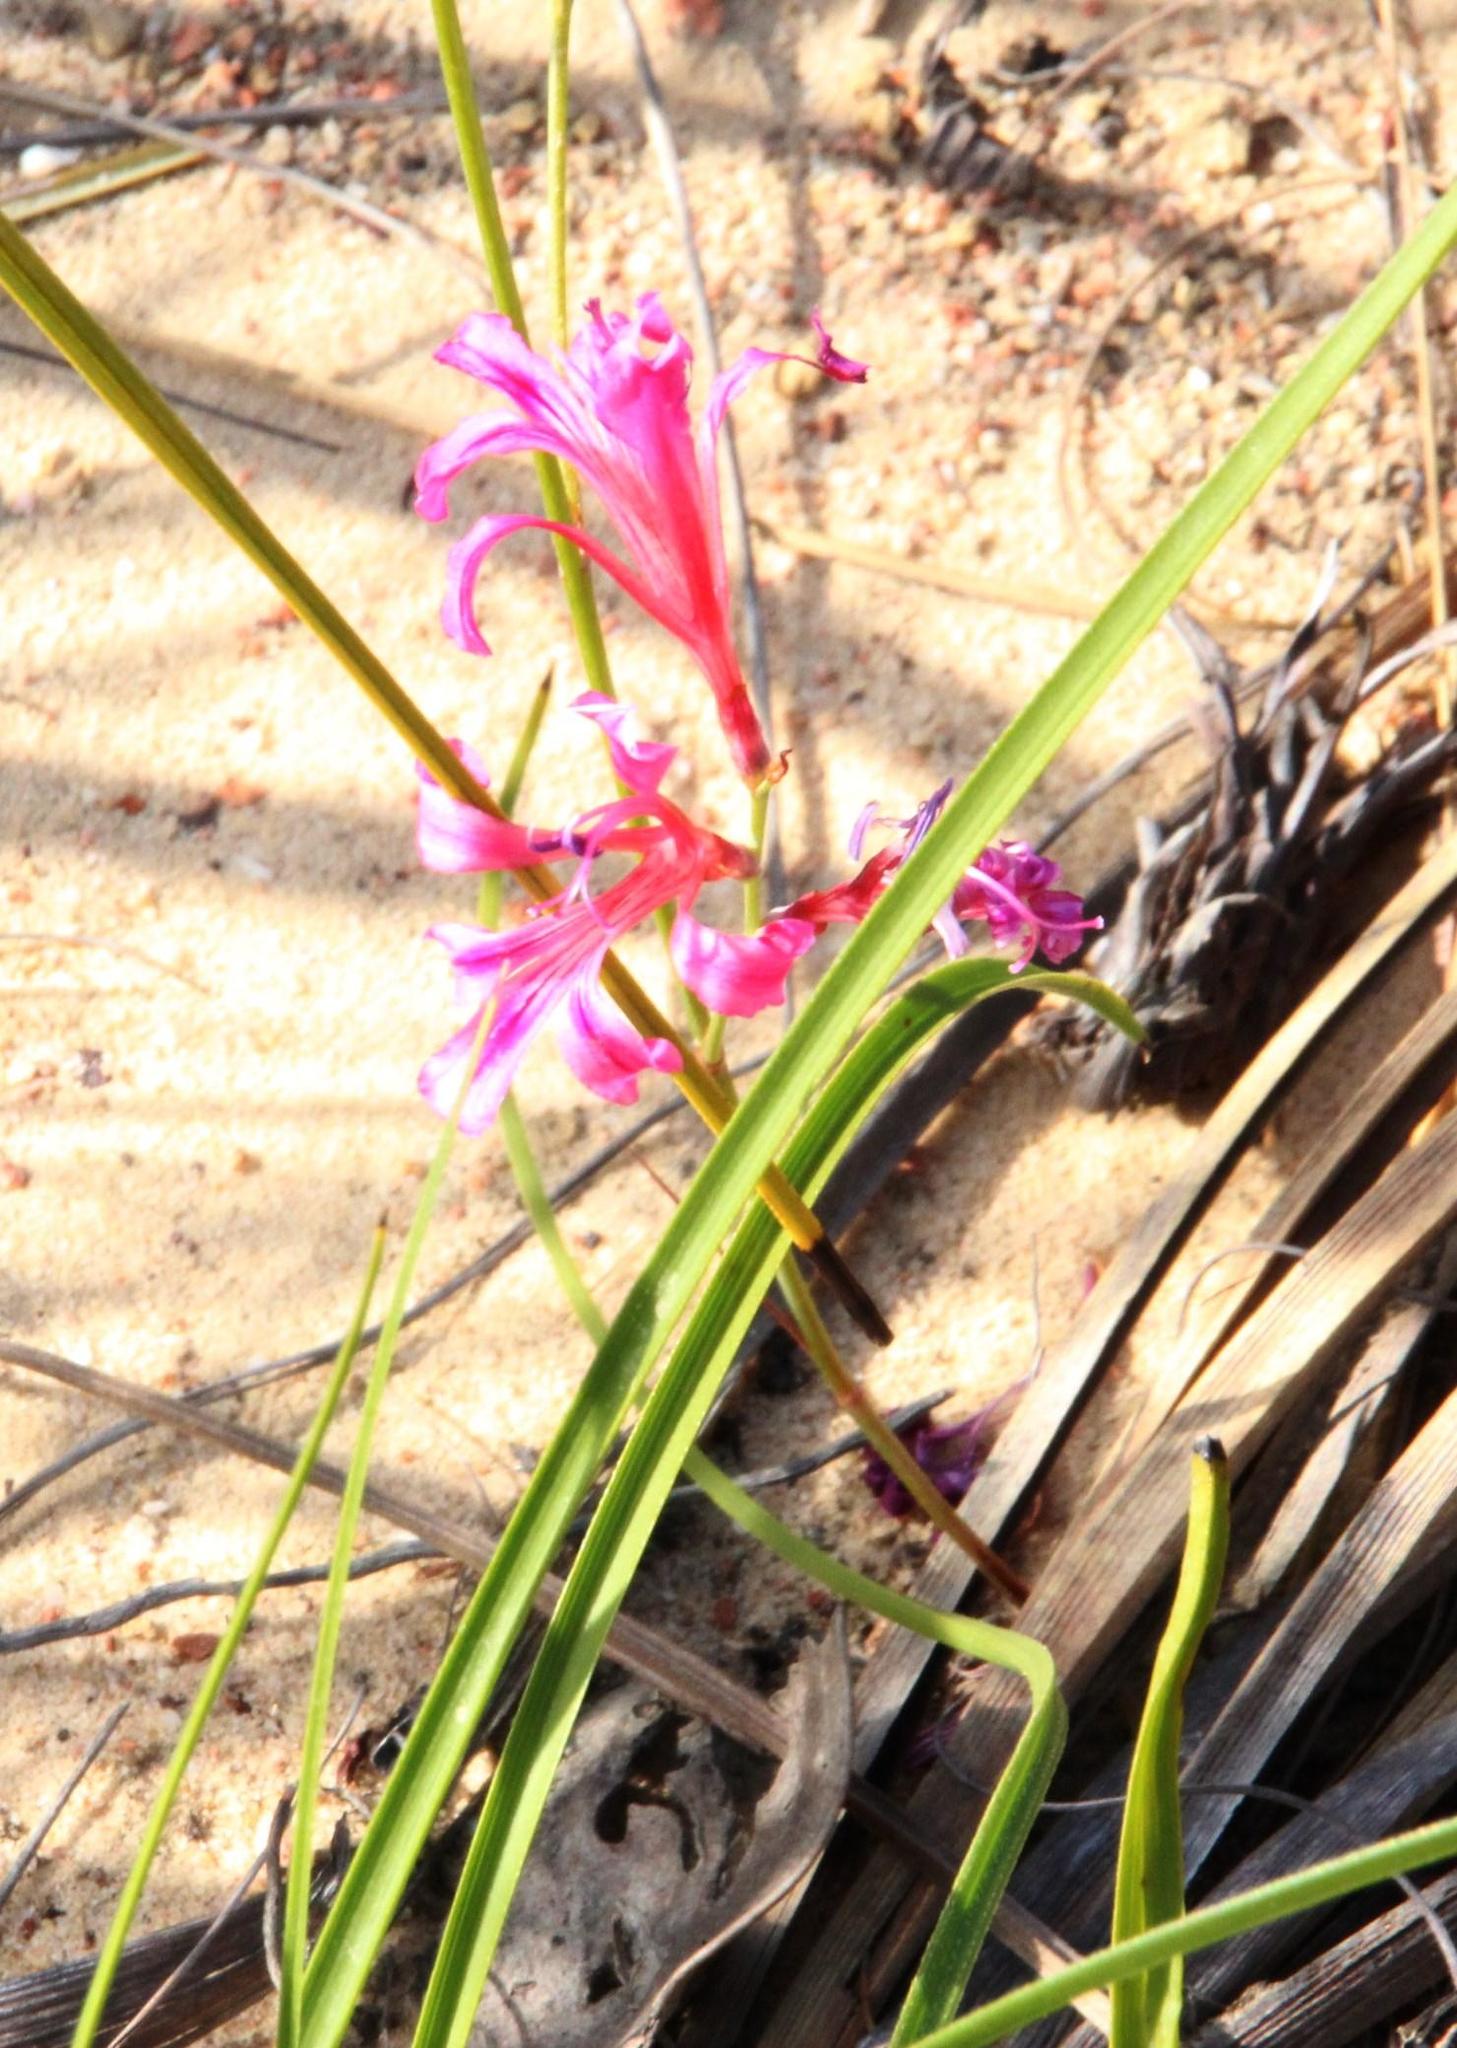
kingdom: Plantae
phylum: Tracheophyta
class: Liliopsida
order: Asparagales
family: Iridaceae
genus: Tritoniopsis
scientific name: Tritoniopsis dodii
